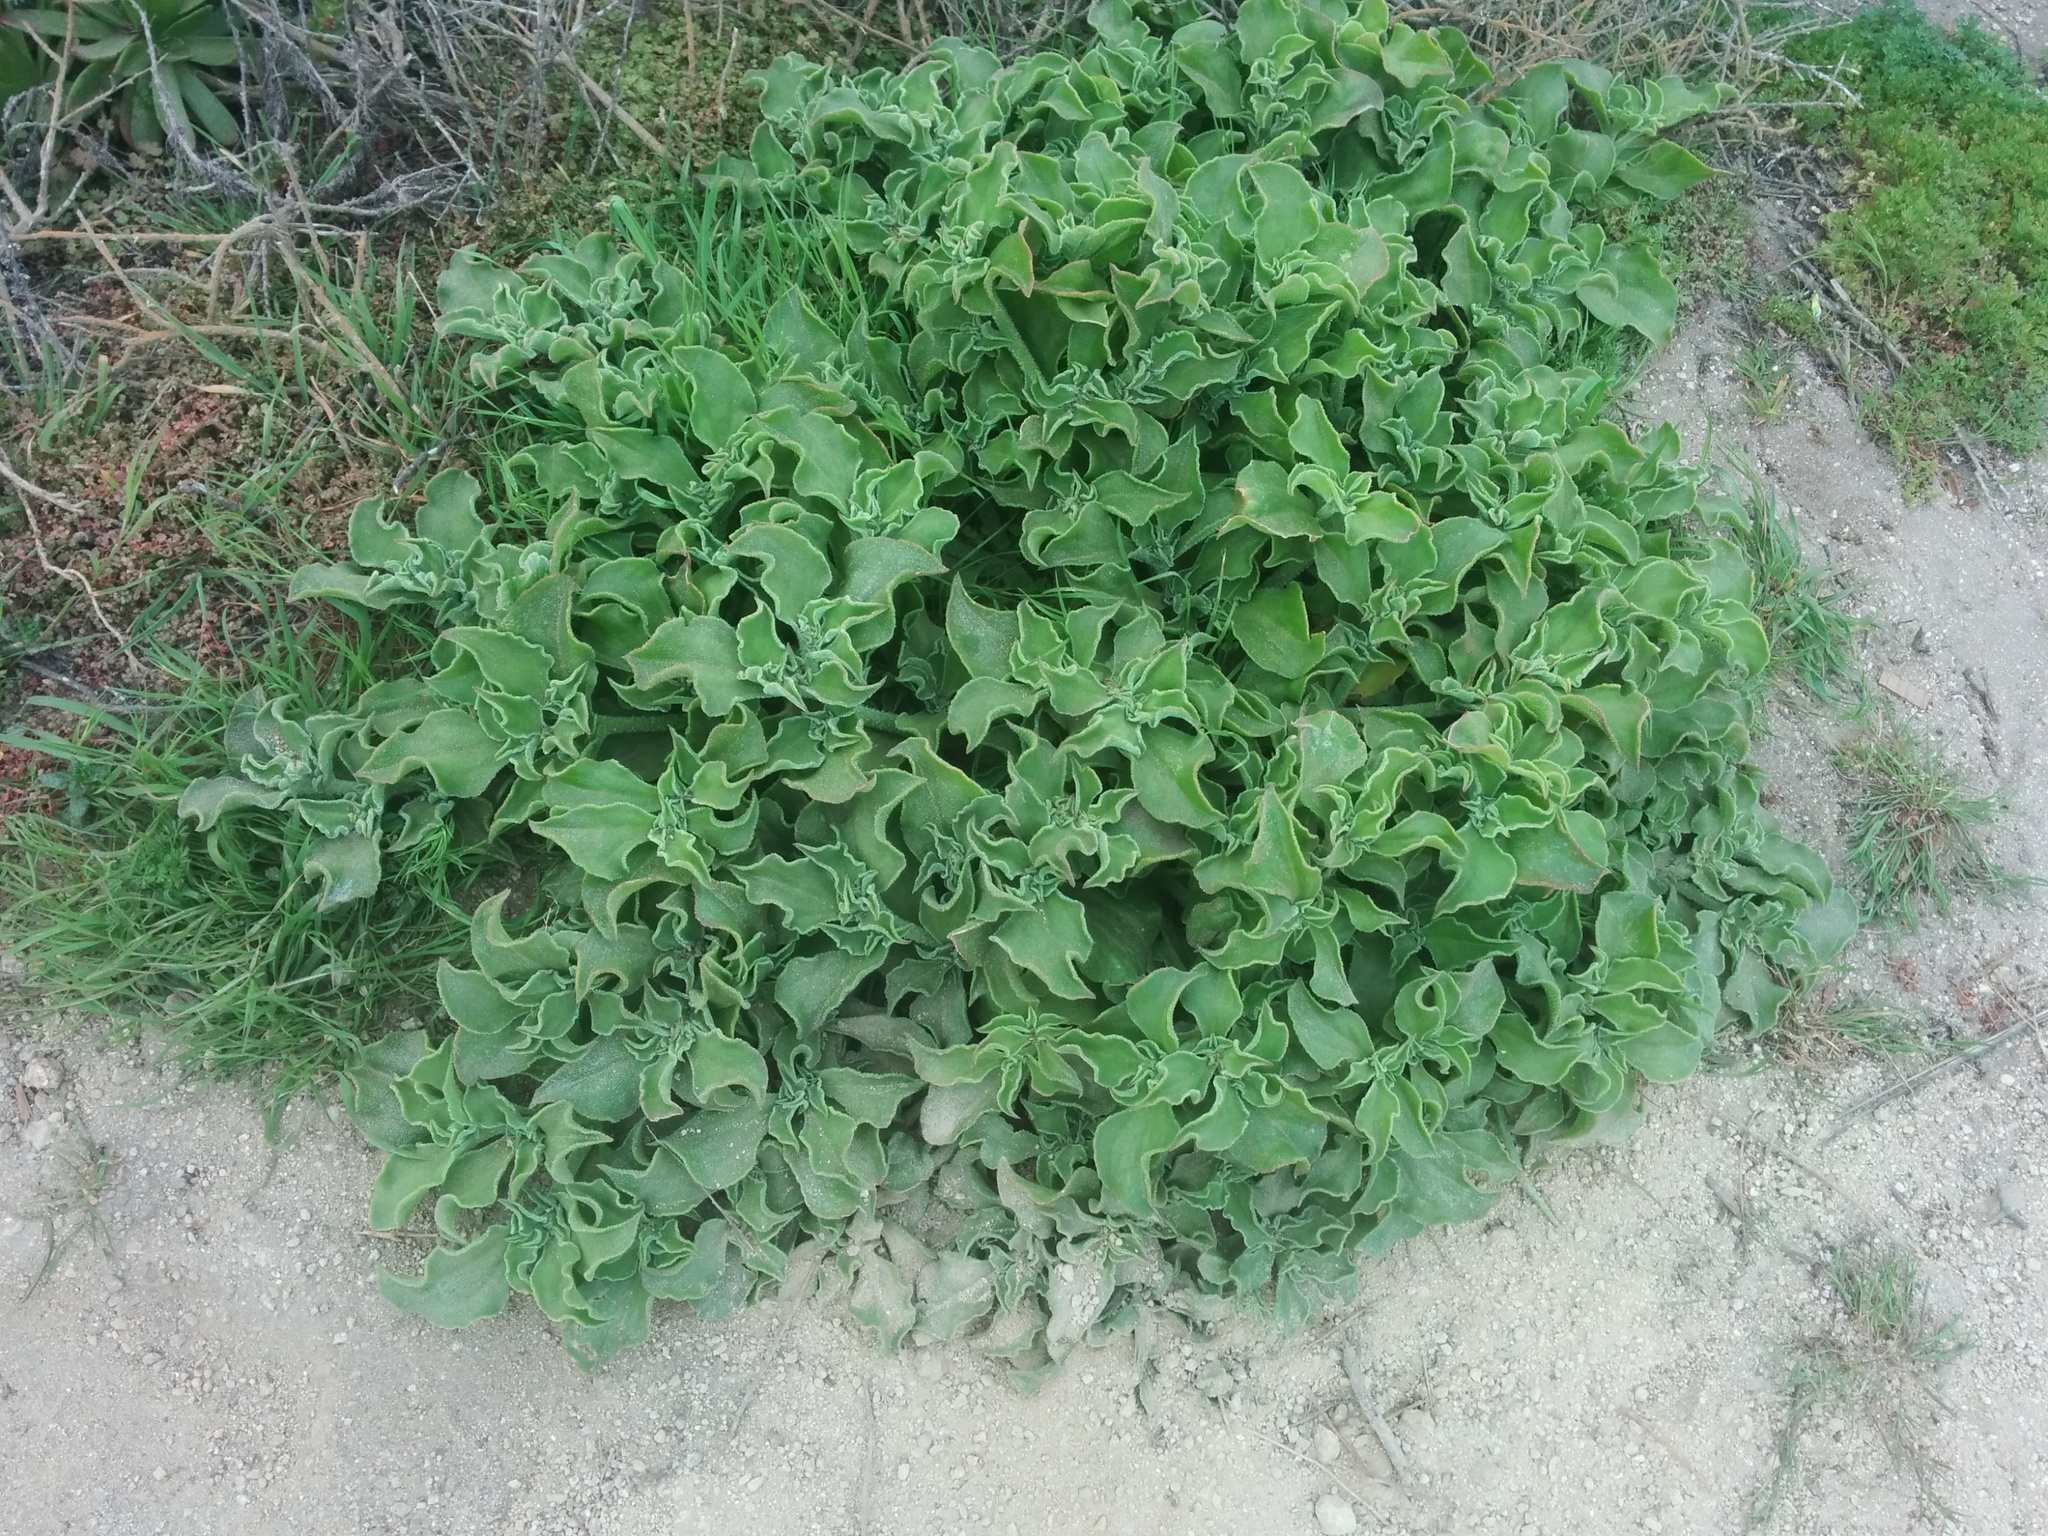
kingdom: Plantae
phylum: Tracheophyta
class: Magnoliopsida
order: Caryophyllales
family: Aizoaceae
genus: Mesembryanthemum
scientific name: Mesembryanthemum crystallinum
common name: Common iceplant
